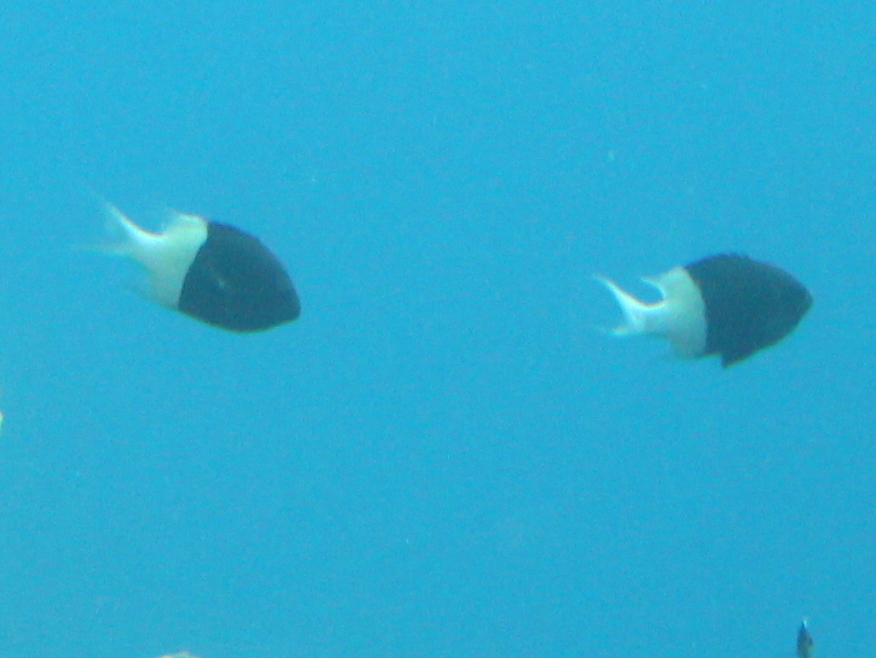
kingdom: Animalia
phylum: Chordata
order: Perciformes
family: Pomacentridae
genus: Chromis
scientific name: Chromis dimidiata
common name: Half-and-half chromis
